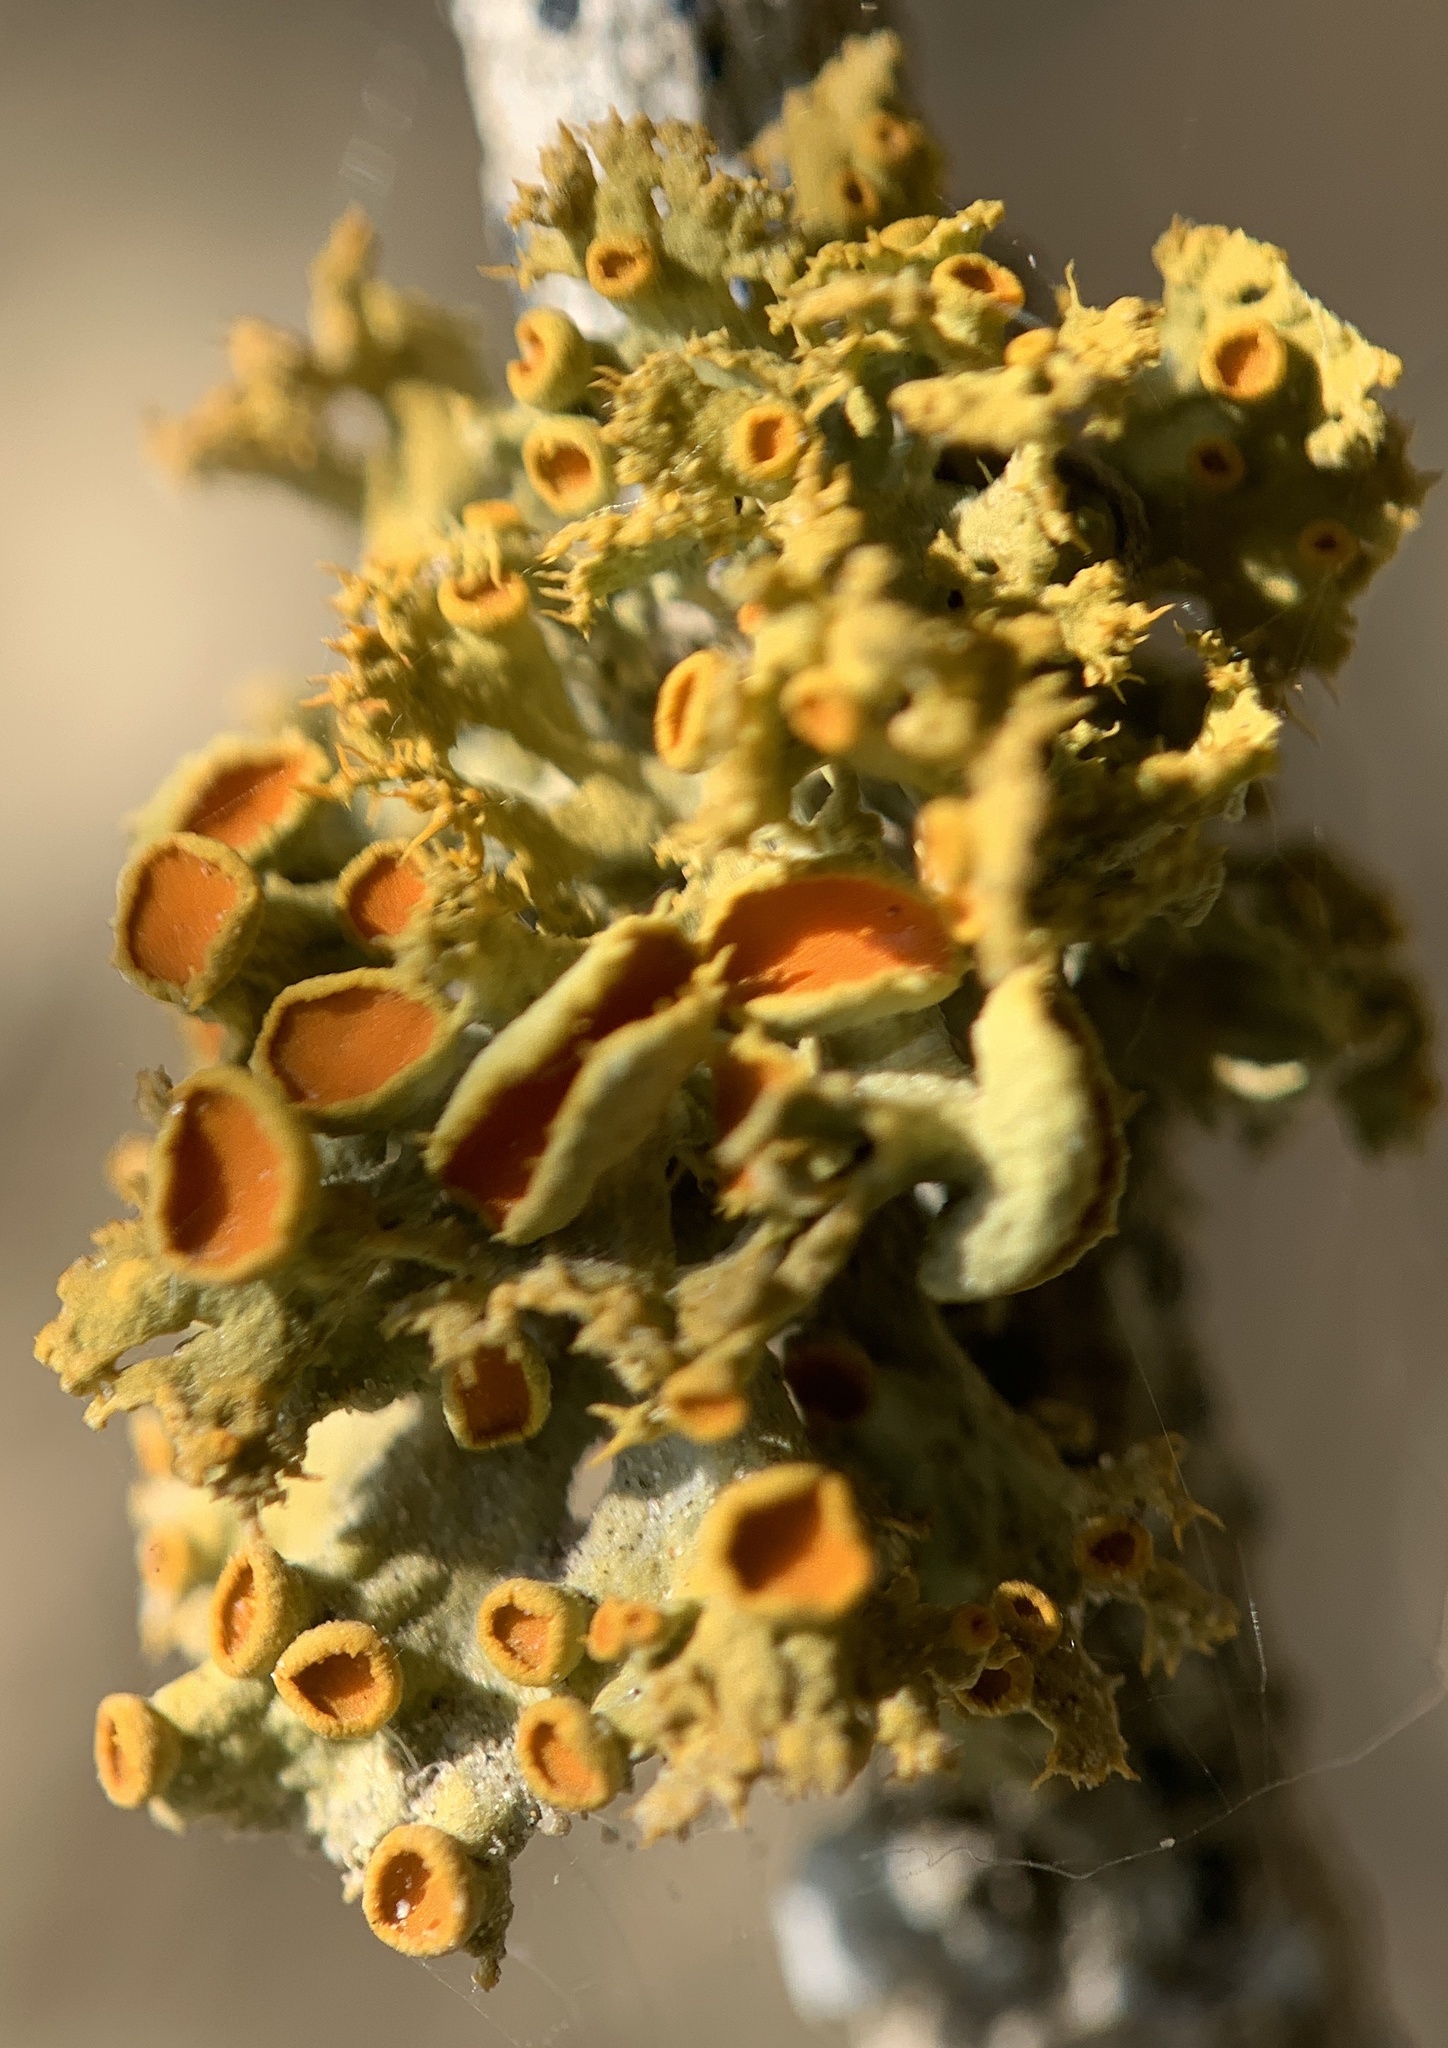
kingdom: Fungi
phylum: Ascomycota
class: Lecanoromycetes
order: Teloschistales
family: Teloschistaceae
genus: Niorma
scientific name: Niorma chrysophthalma
